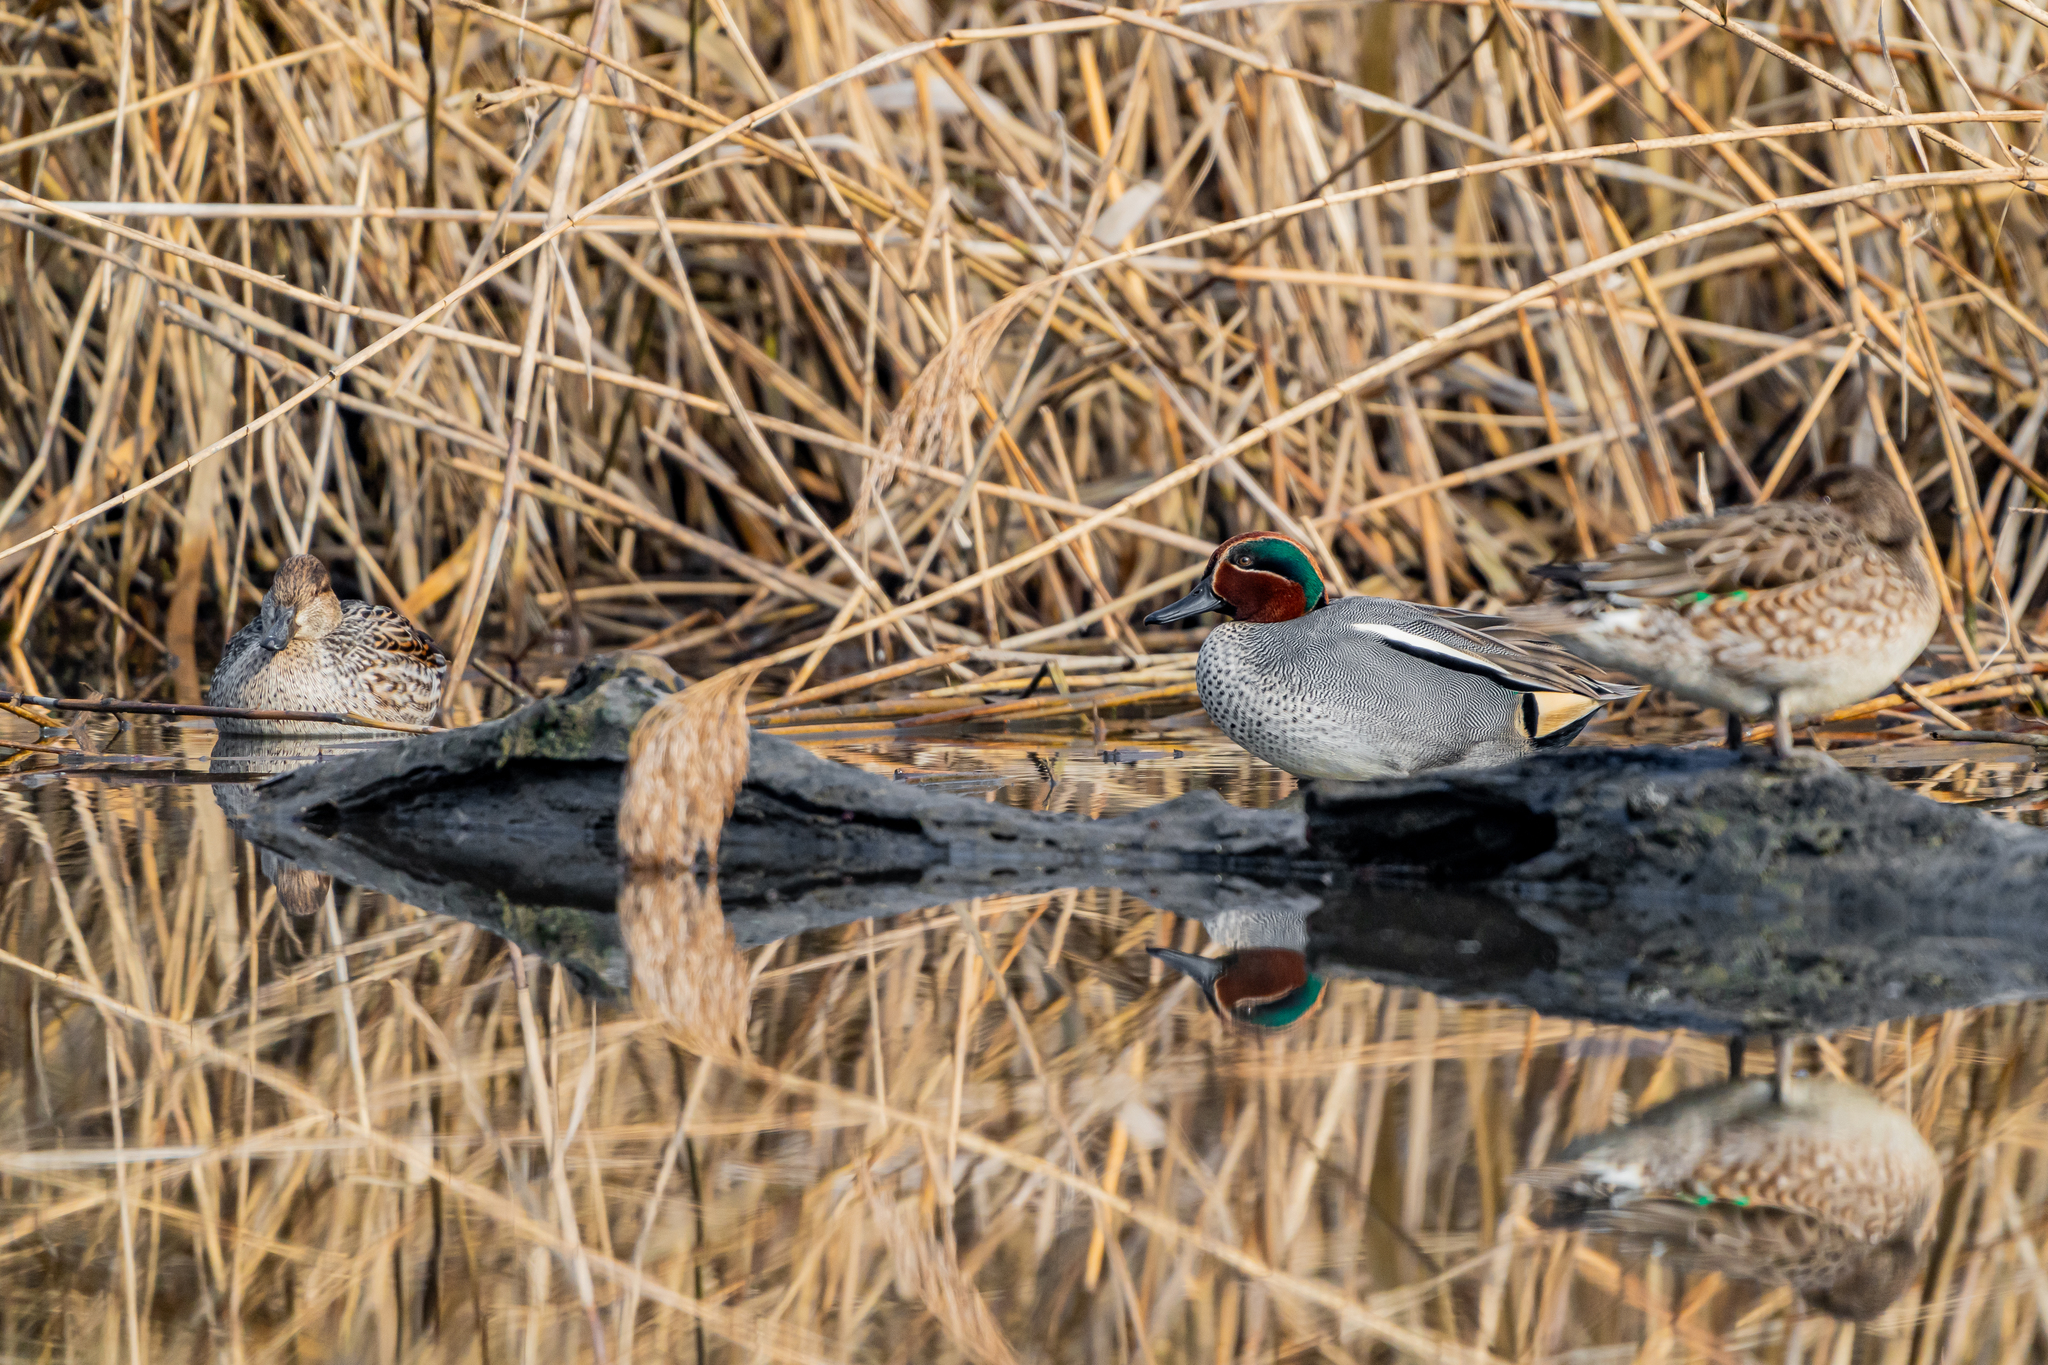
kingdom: Animalia
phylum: Chordata
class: Aves
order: Anseriformes
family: Anatidae
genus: Anas
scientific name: Anas crecca
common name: Eurasian teal
